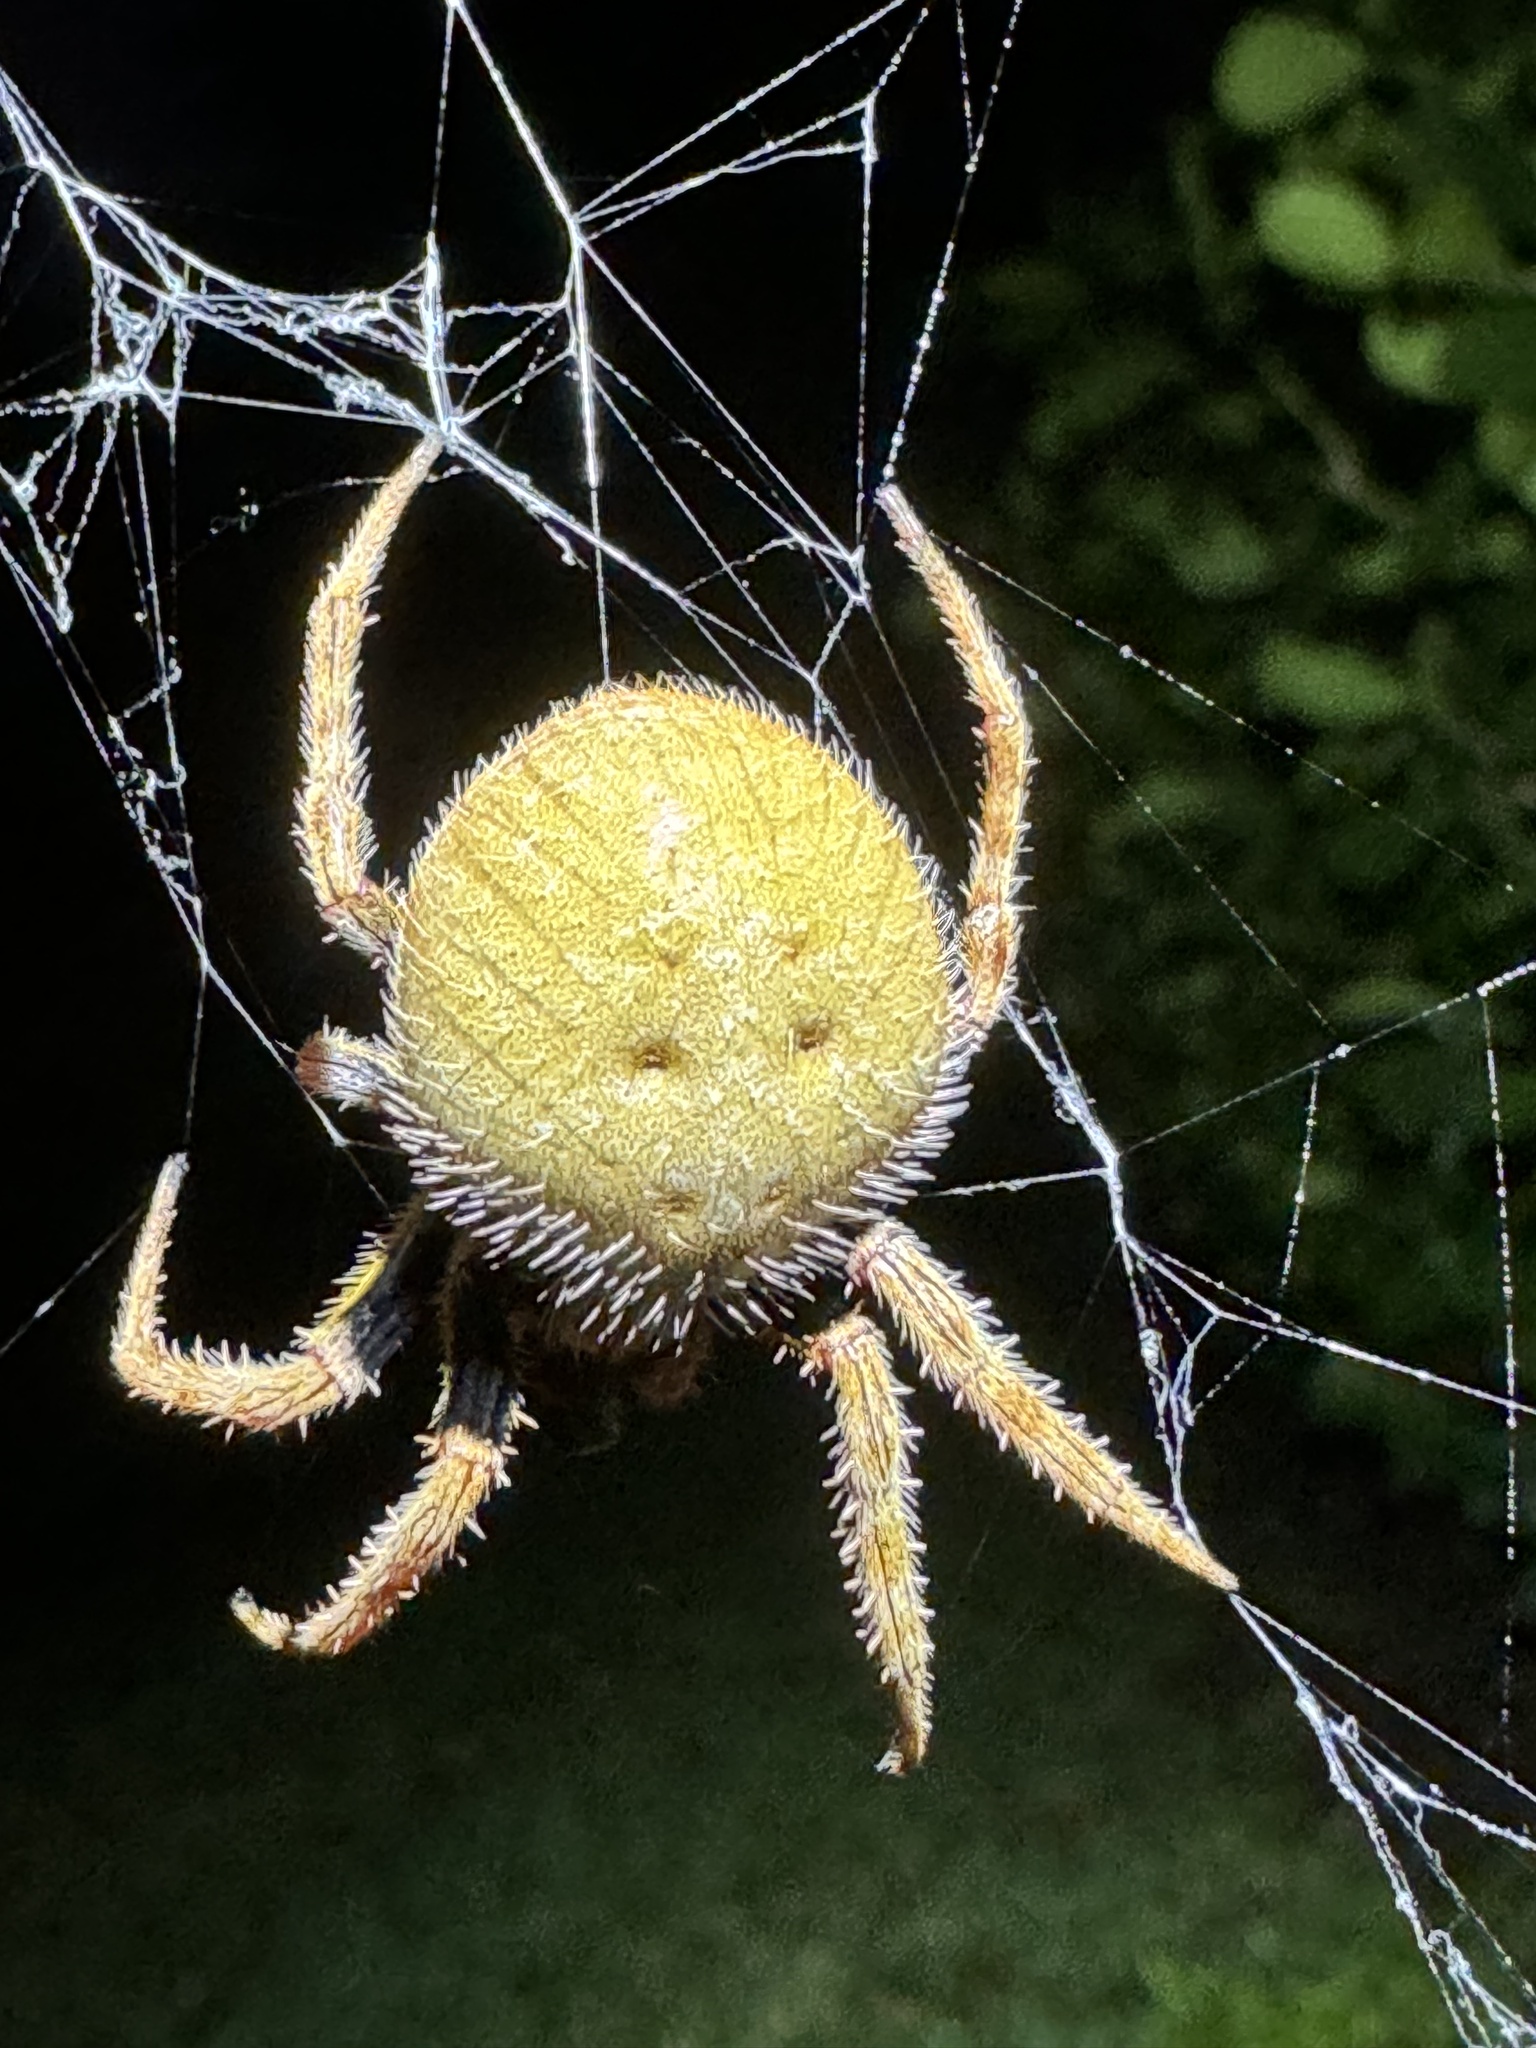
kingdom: Animalia
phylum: Arthropoda
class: Arachnida
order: Araneae
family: Araneidae
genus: Eriophora
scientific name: Eriophora ravilla
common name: Orb weavers
